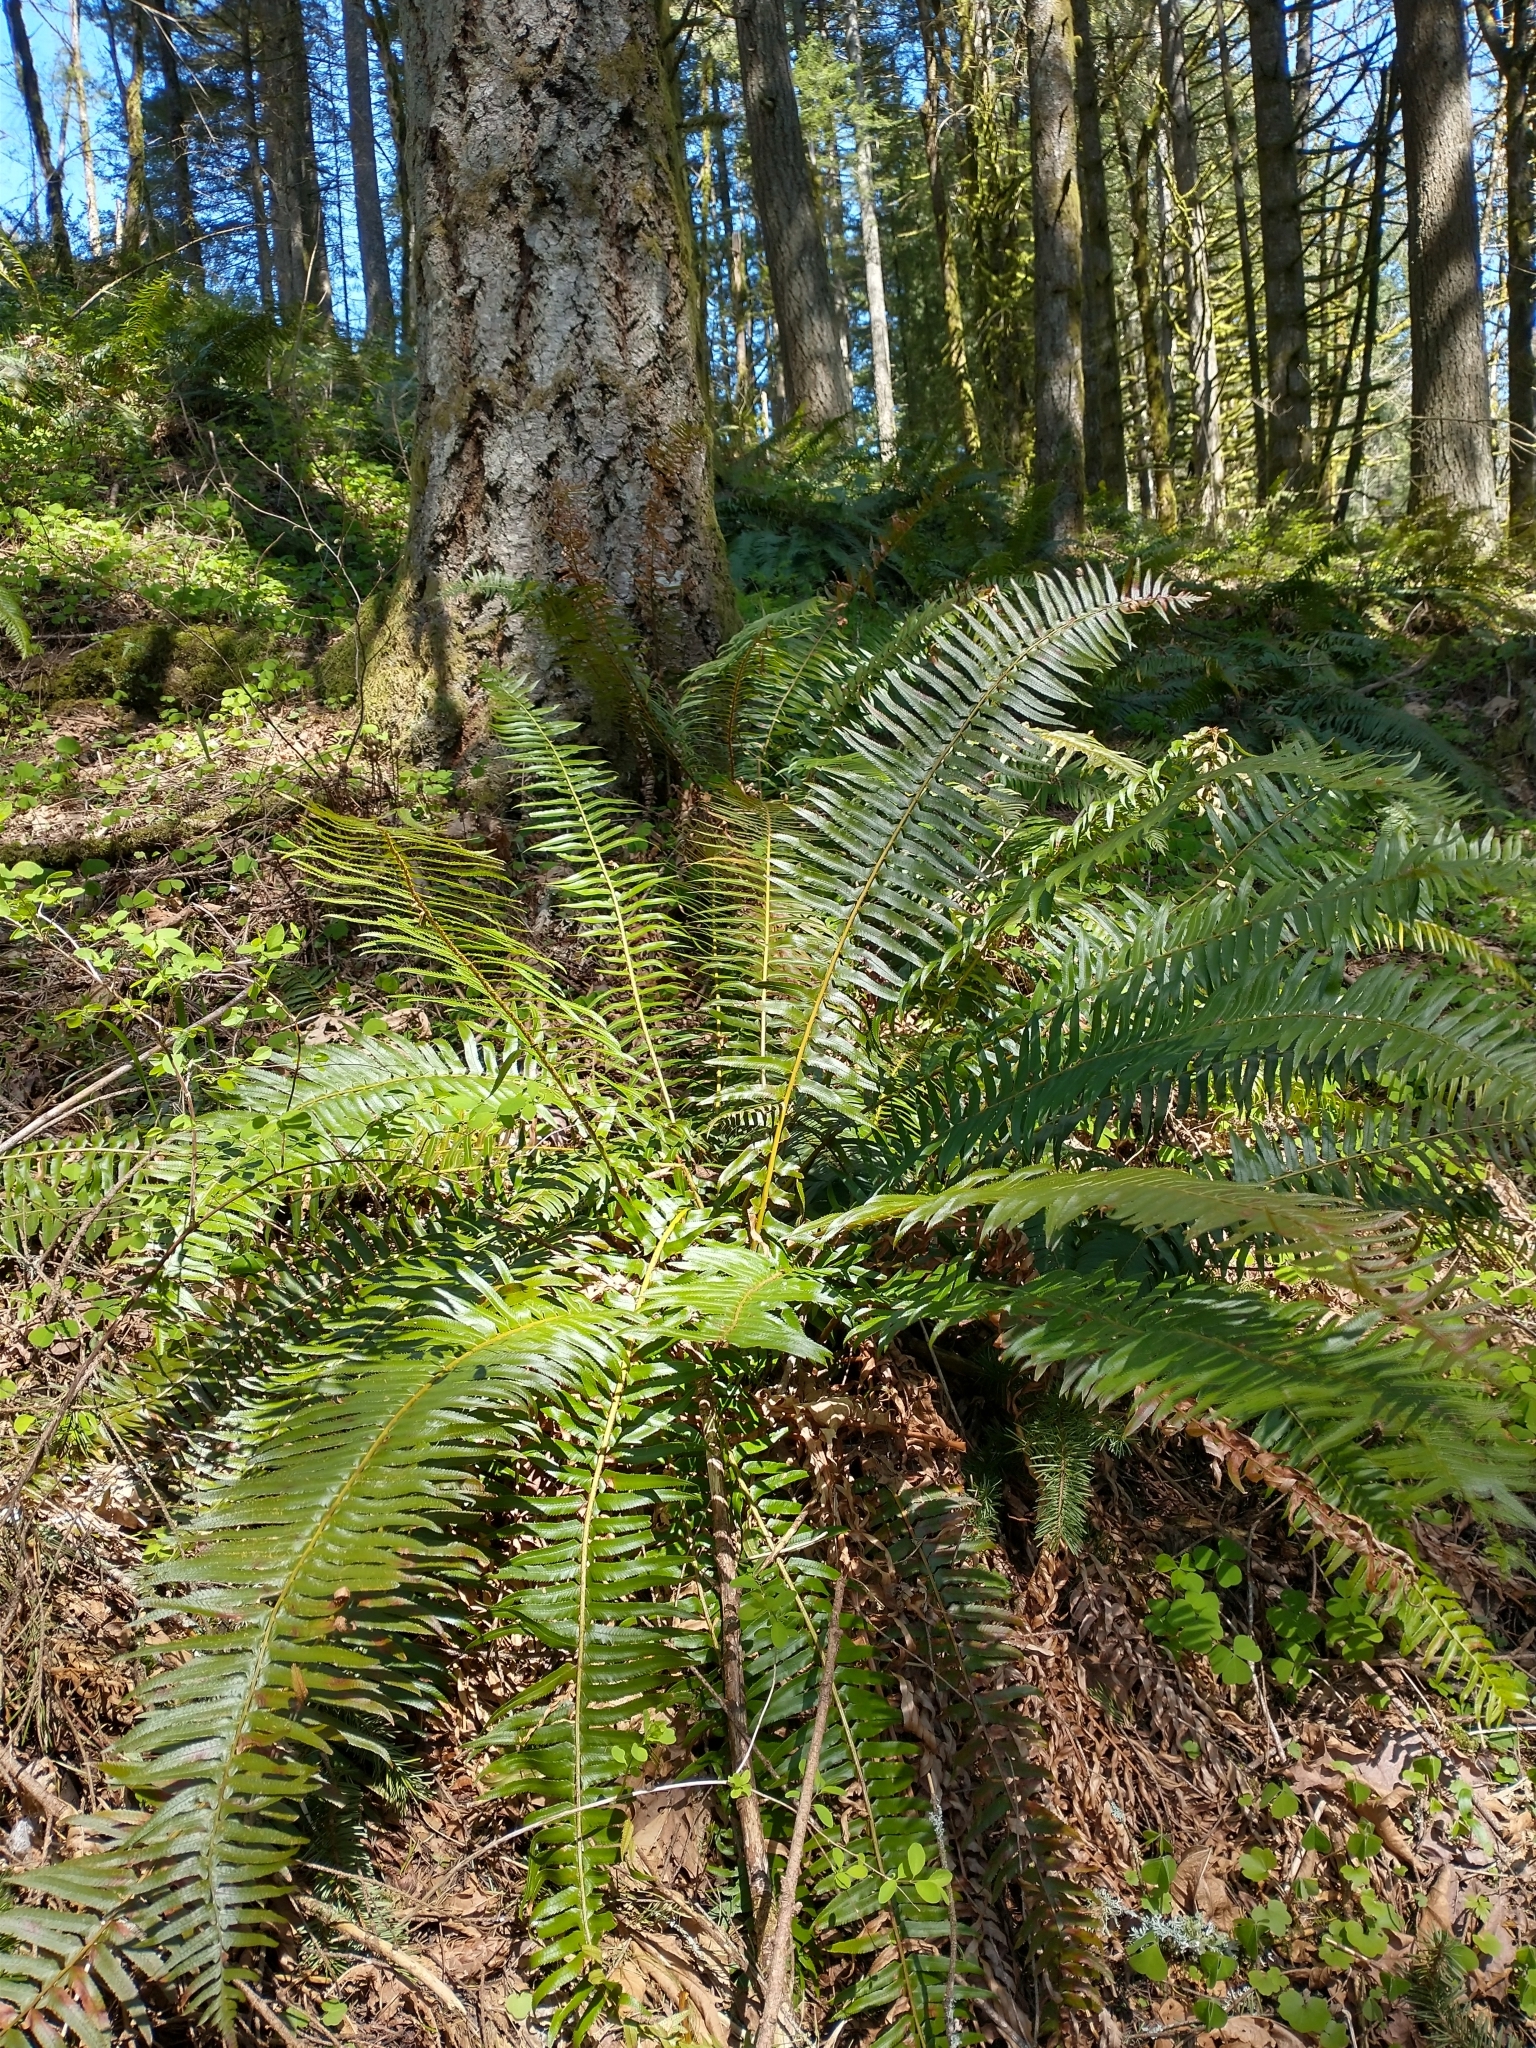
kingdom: Plantae
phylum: Tracheophyta
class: Polypodiopsida
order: Polypodiales
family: Dryopteridaceae
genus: Polystichum
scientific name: Polystichum munitum
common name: Western sword-fern
